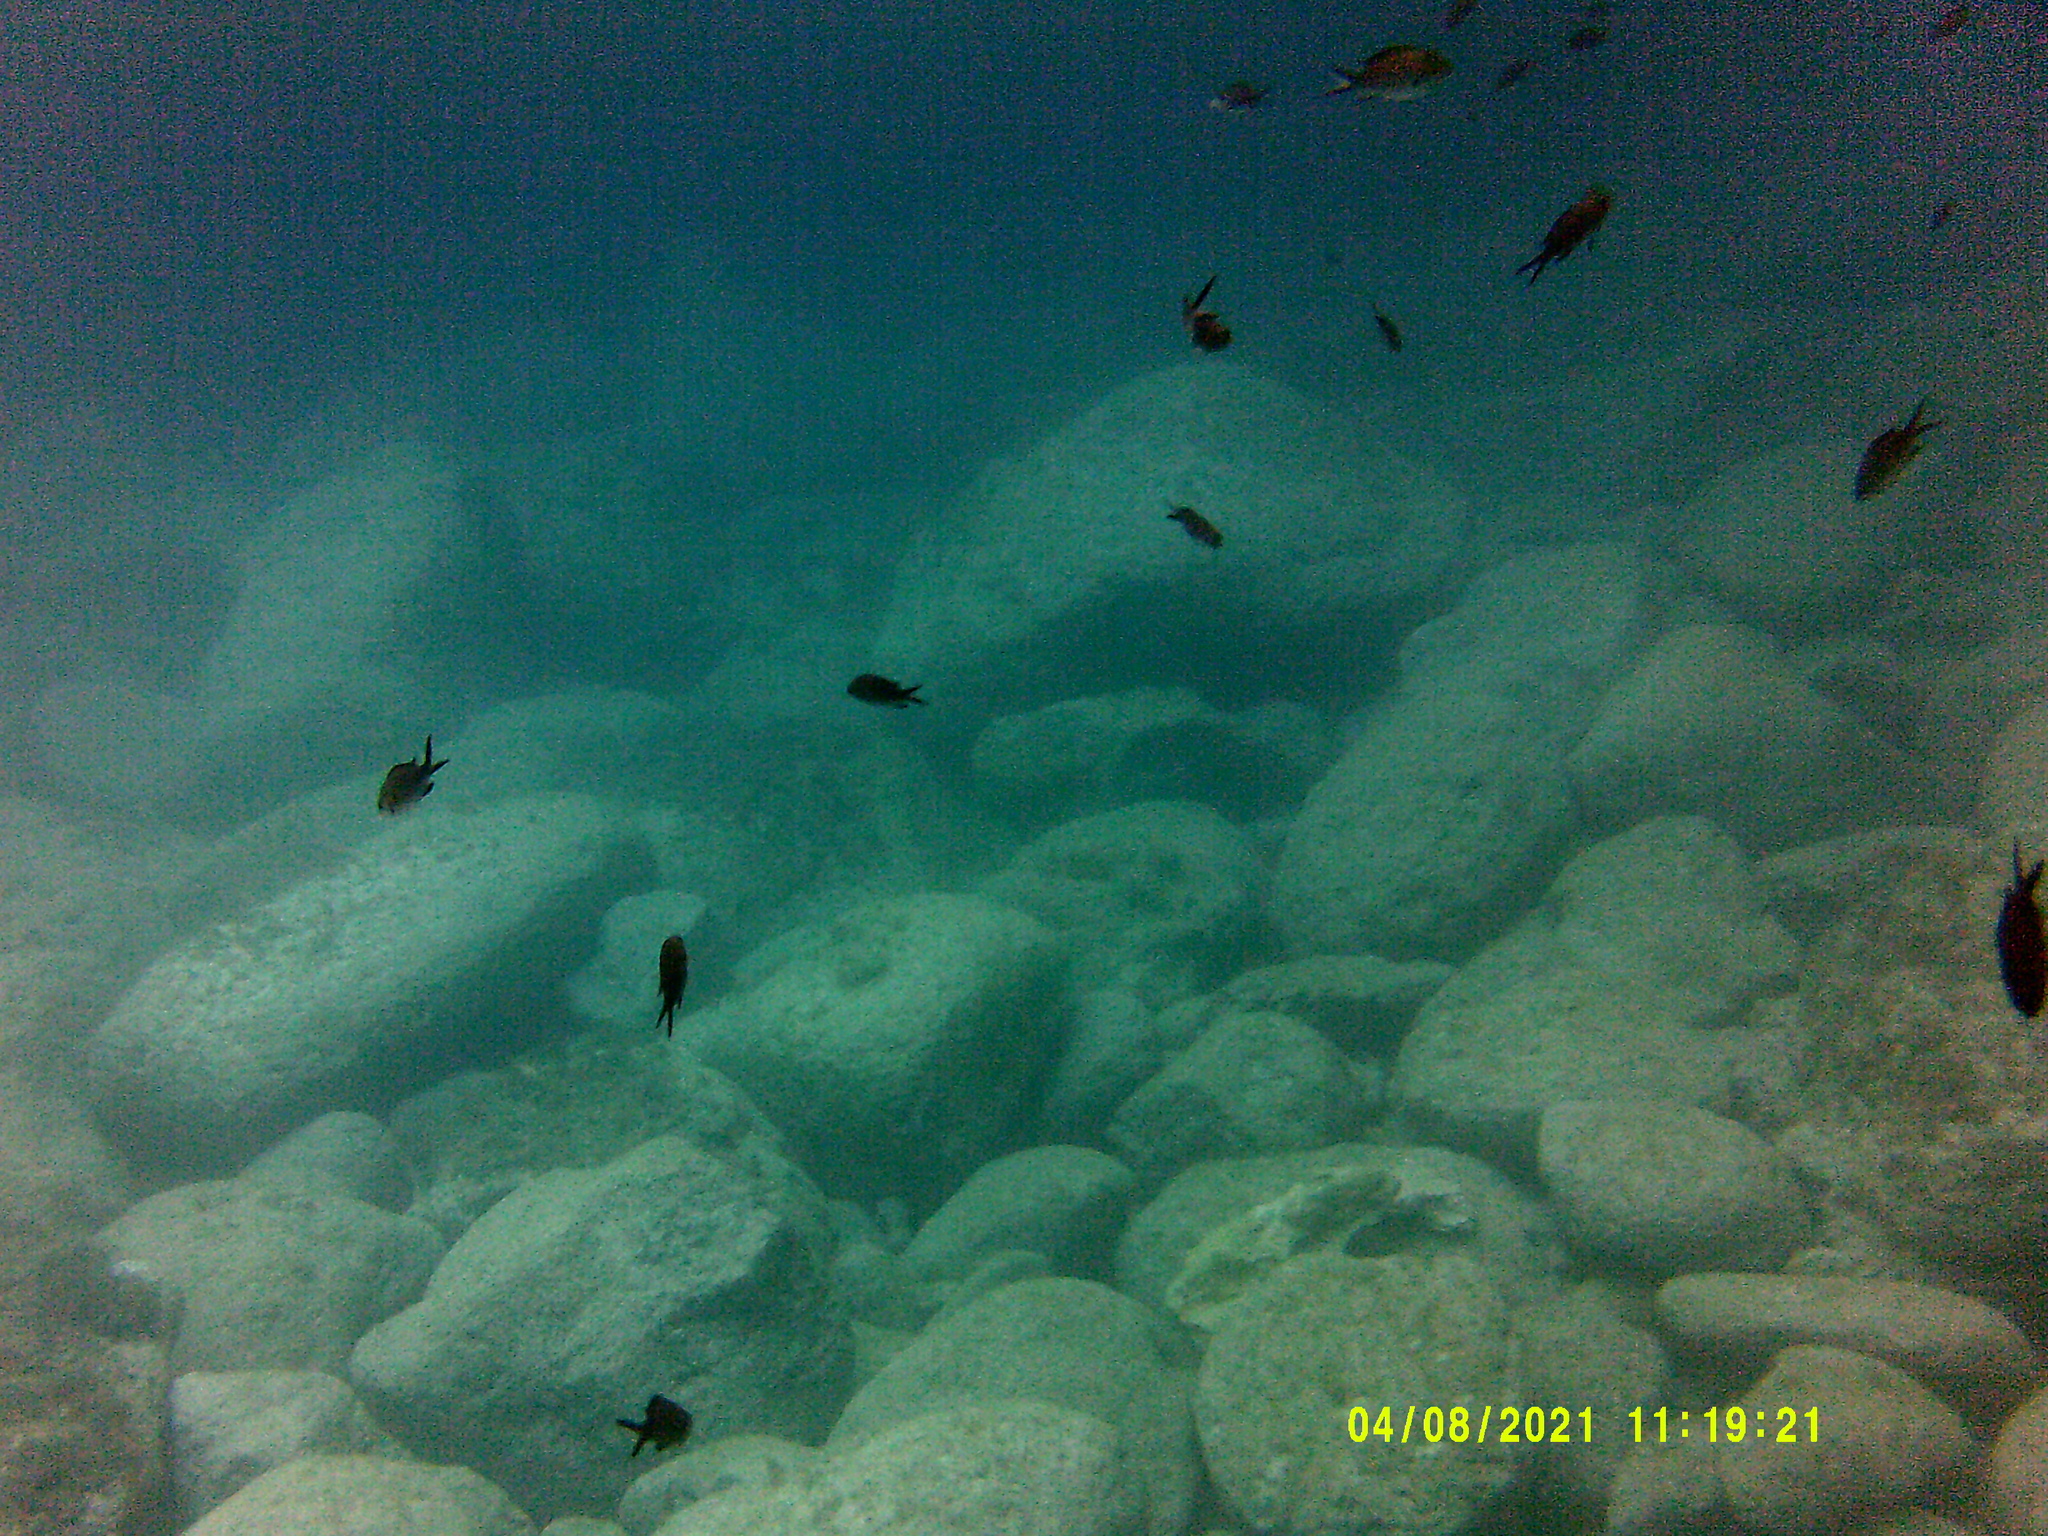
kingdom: Animalia
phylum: Chordata
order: Perciformes
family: Pomacentridae
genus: Chromis
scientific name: Chromis chromis
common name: Damselfish
